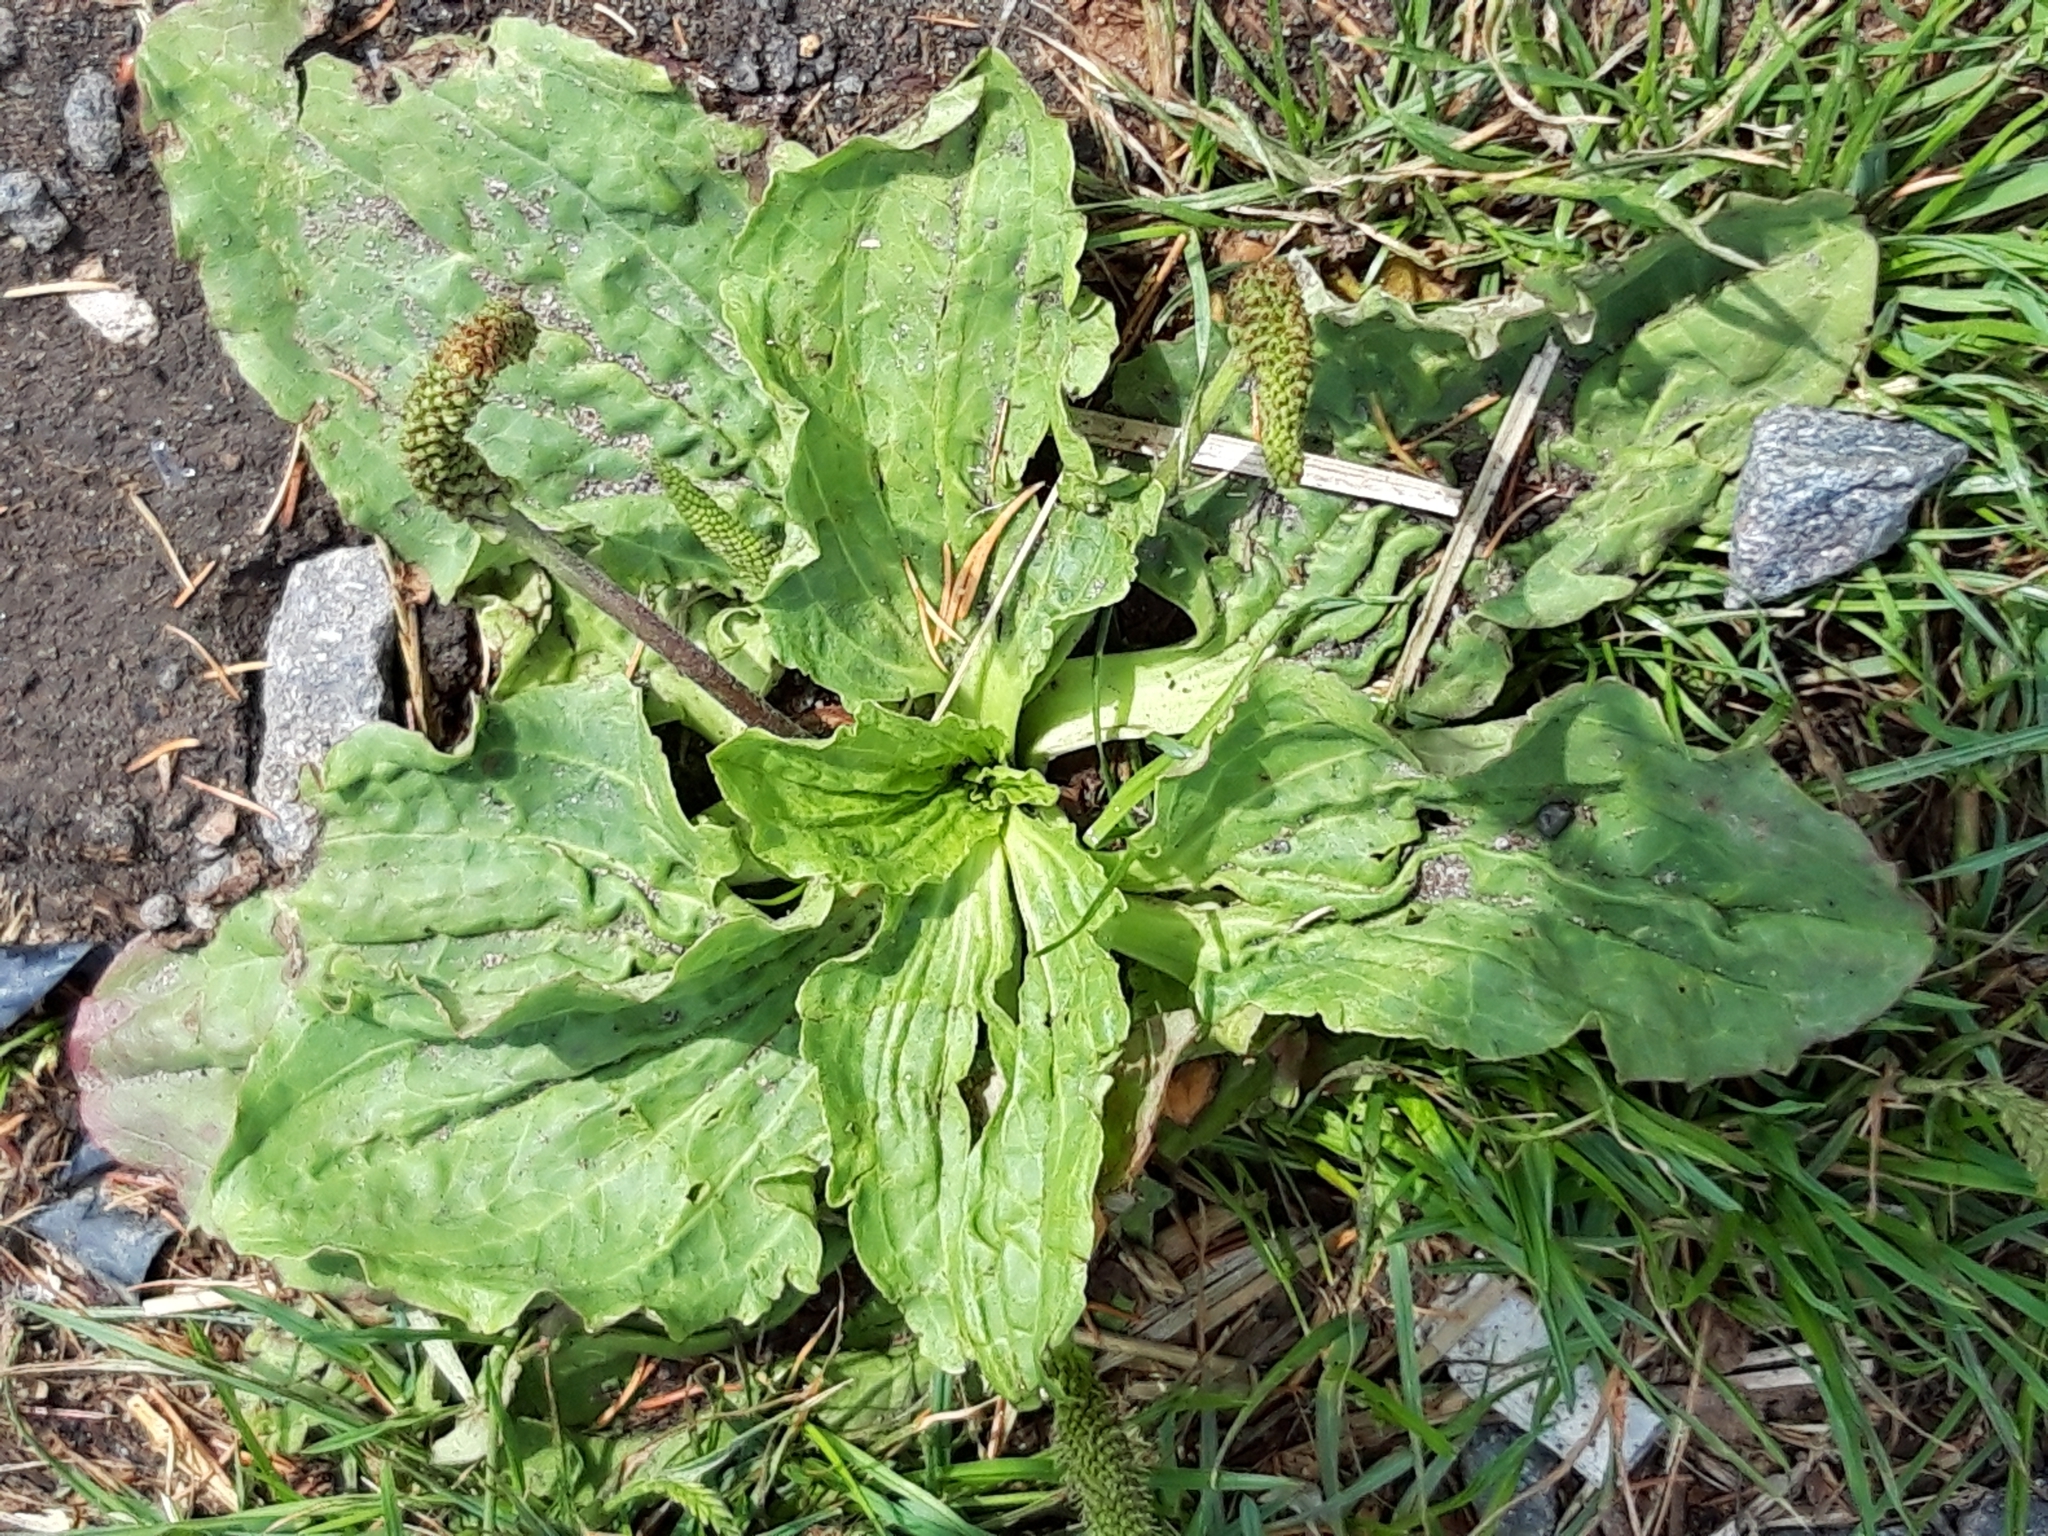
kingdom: Plantae
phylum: Tracheophyta
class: Magnoliopsida
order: Lamiales
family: Plantaginaceae
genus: Plantago
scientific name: Plantago major
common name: Common plantain
